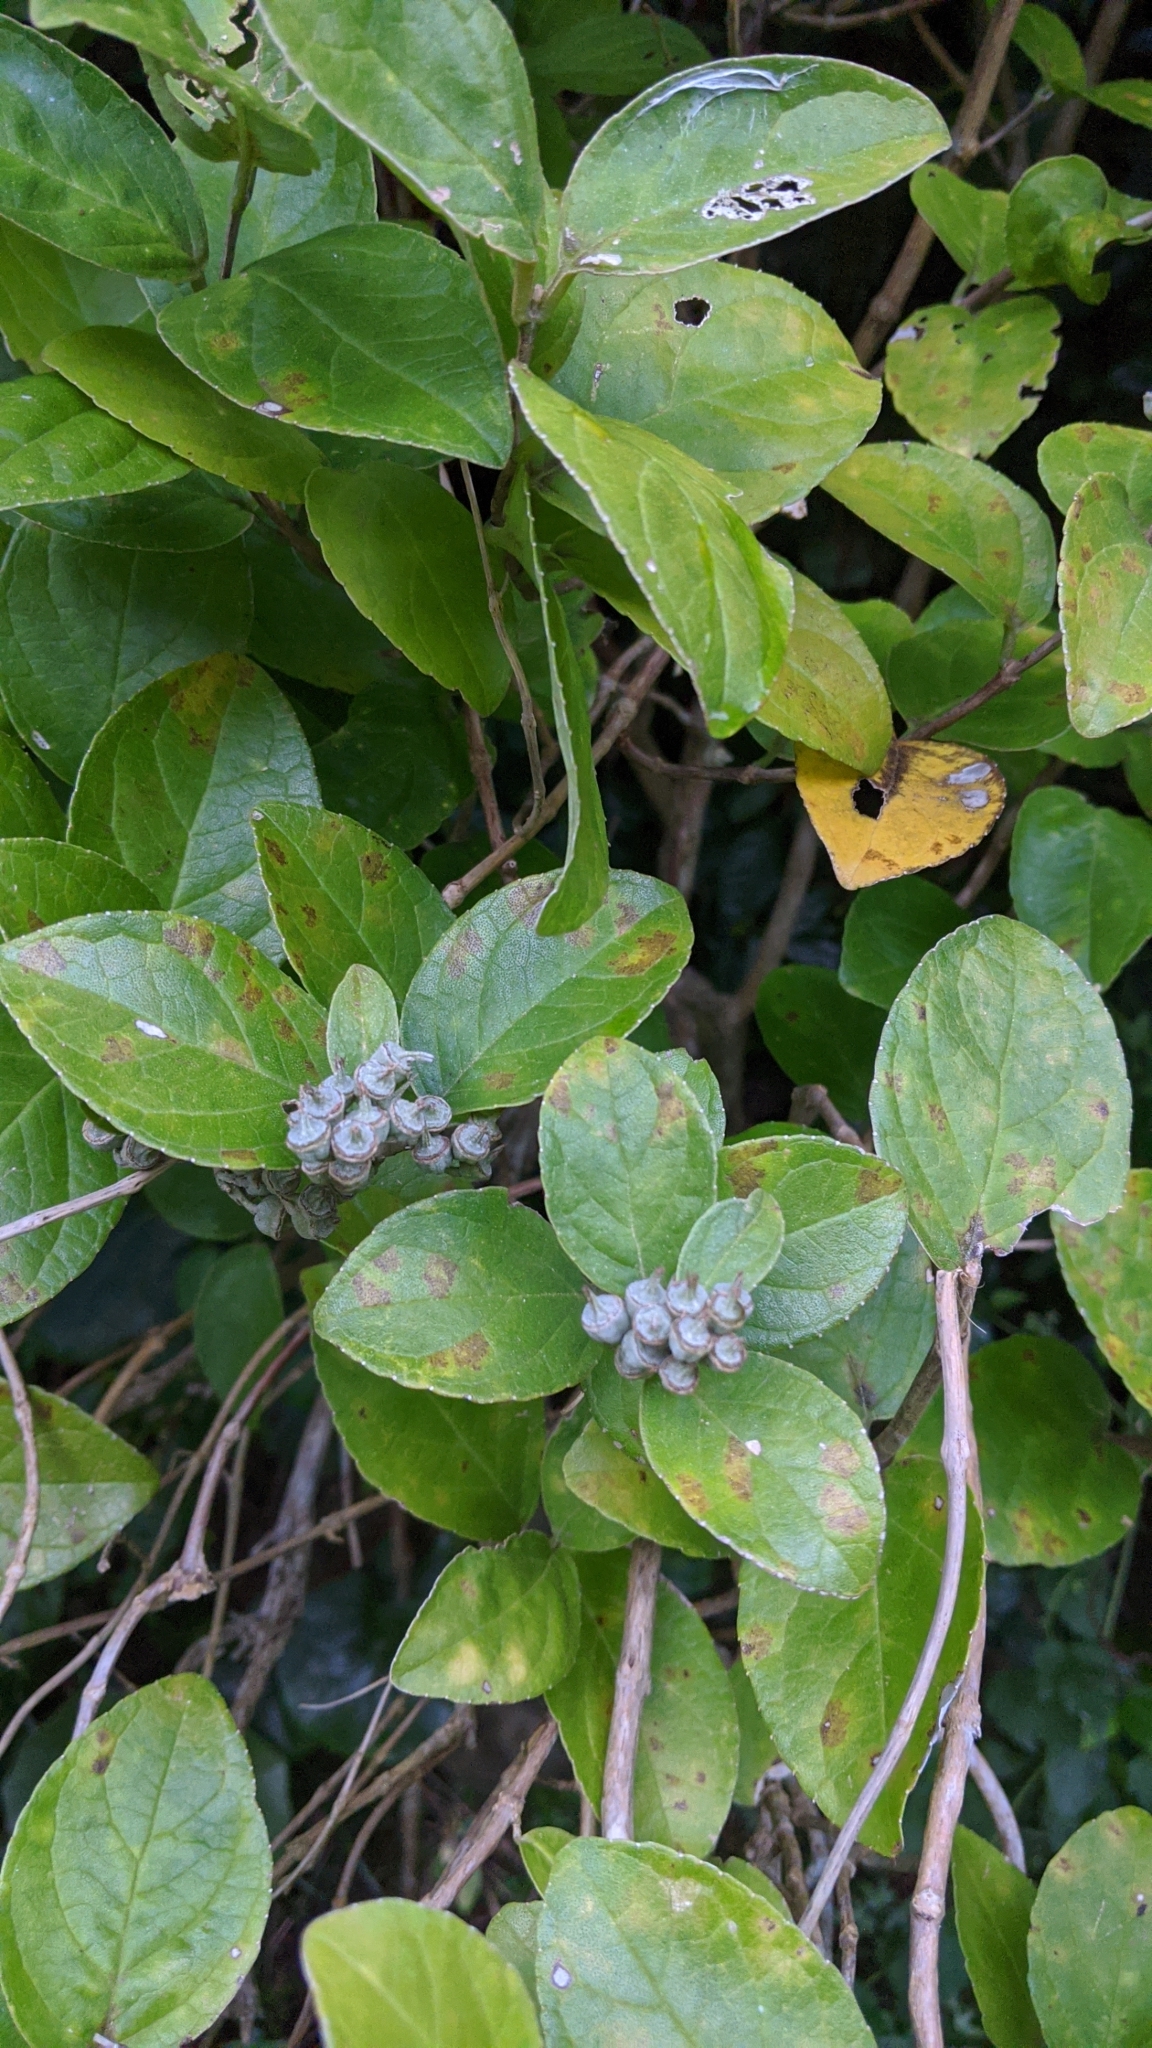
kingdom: Plantae
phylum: Tracheophyta
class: Magnoliopsida
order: Cornales
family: Hydrangeaceae
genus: Deutzia
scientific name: Deutzia pulchra
